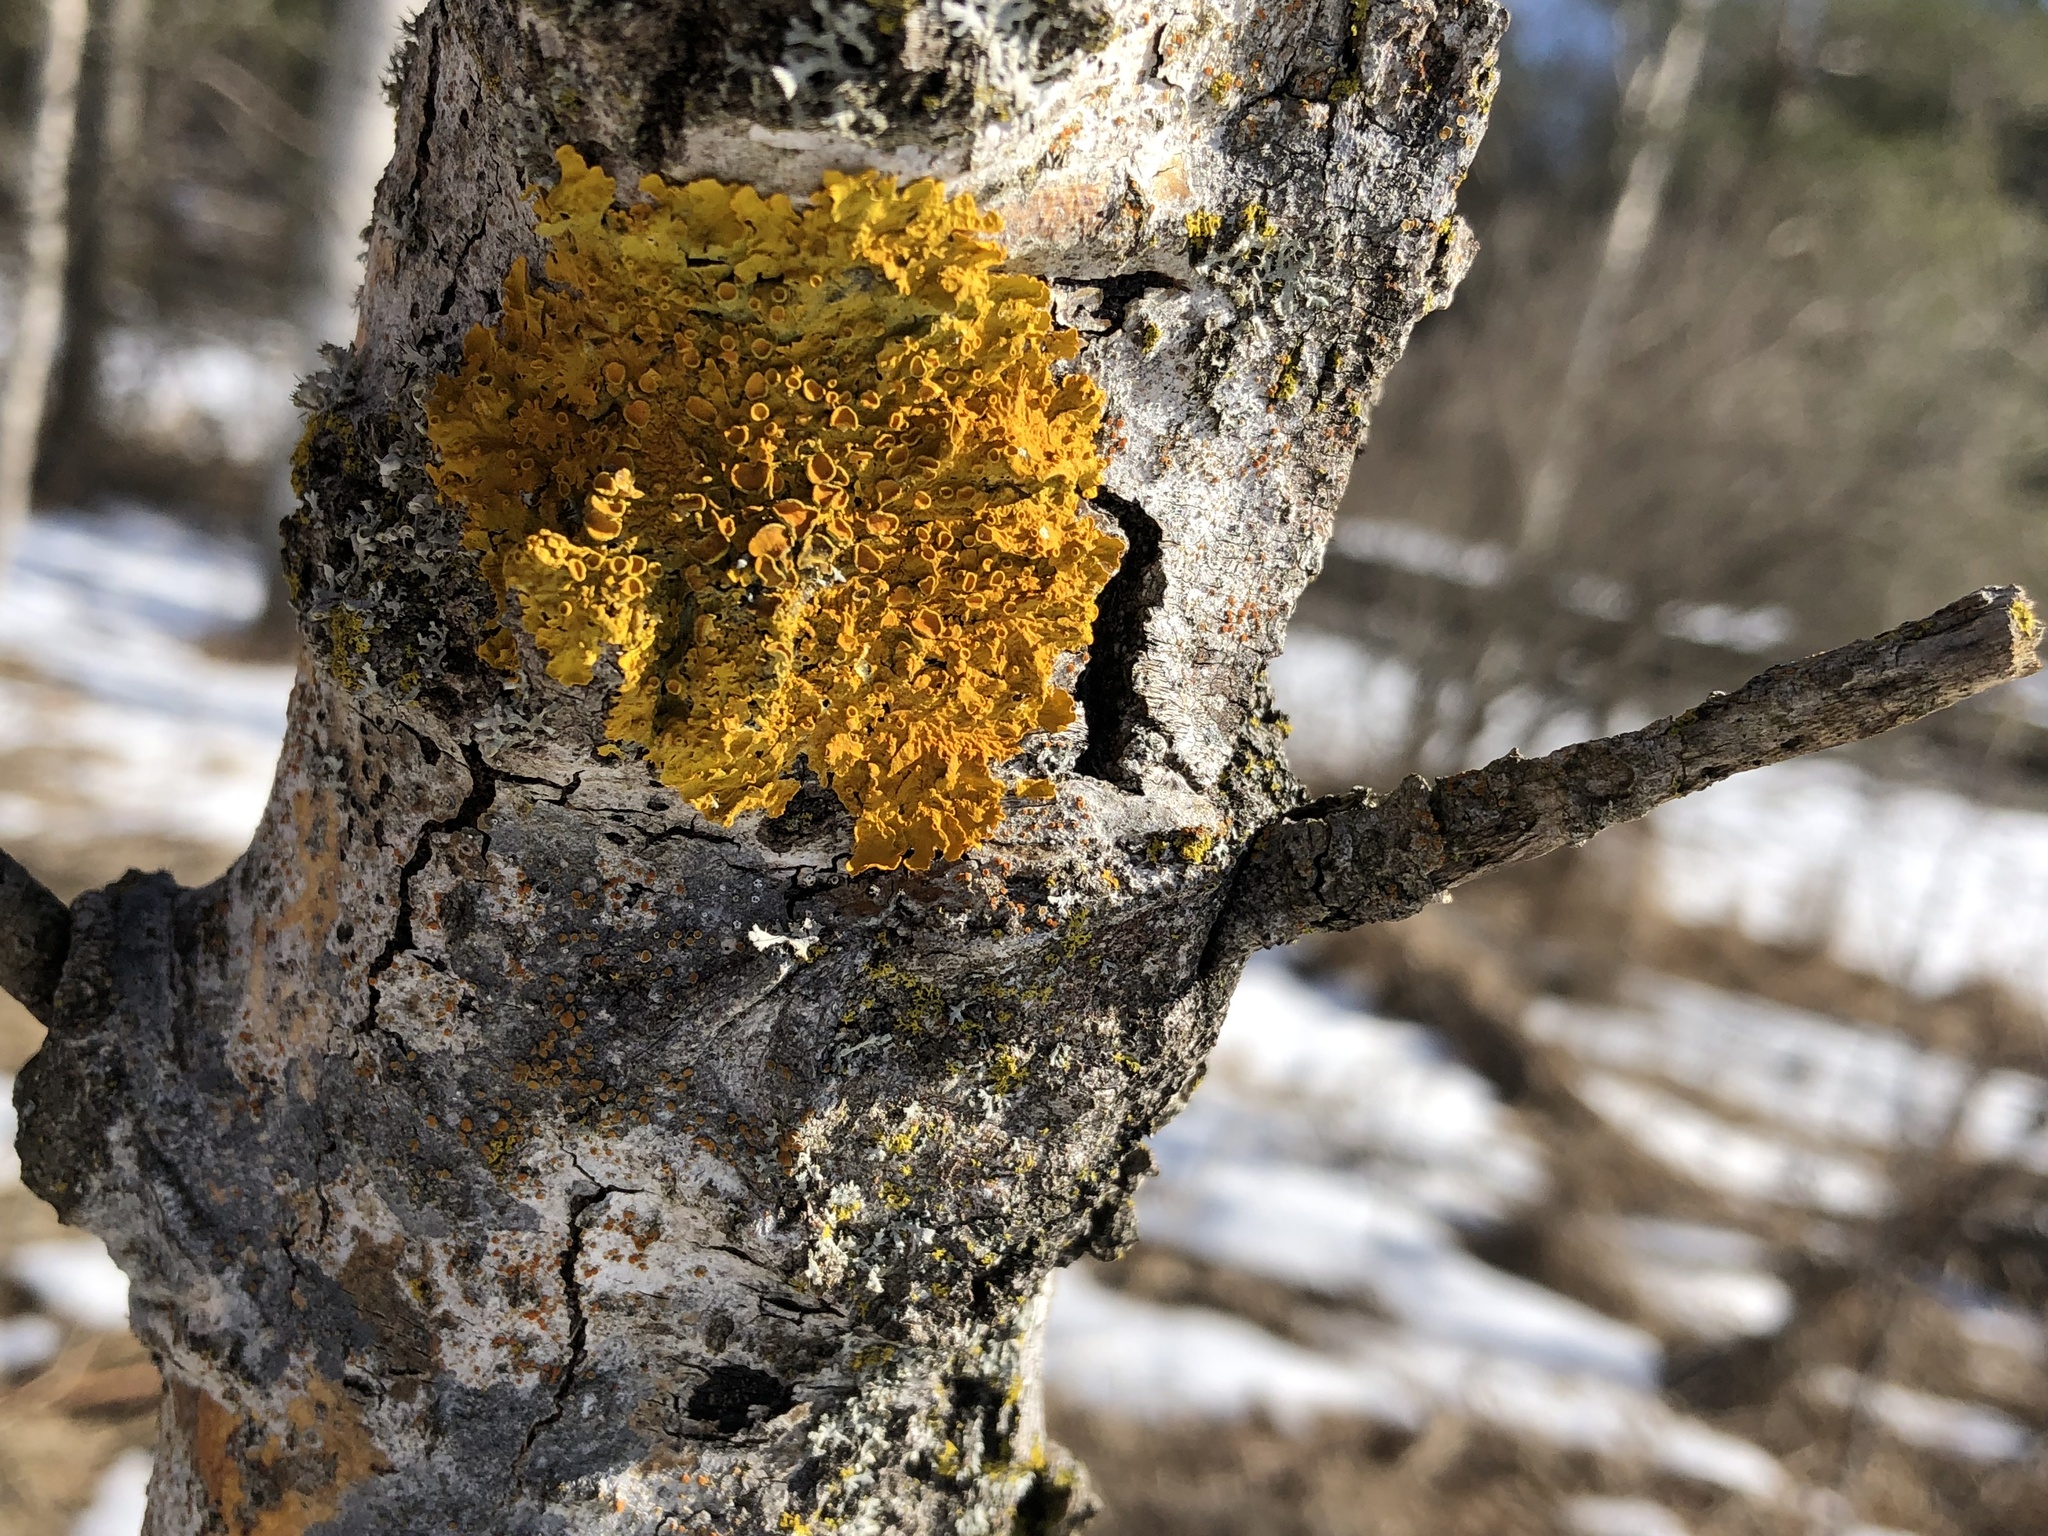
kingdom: Fungi
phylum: Ascomycota
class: Lecanoromycetes
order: Teloschistales
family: Teloschistaceae
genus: Xanthoria
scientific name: Xanthoria parietina
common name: Common orange lichen
